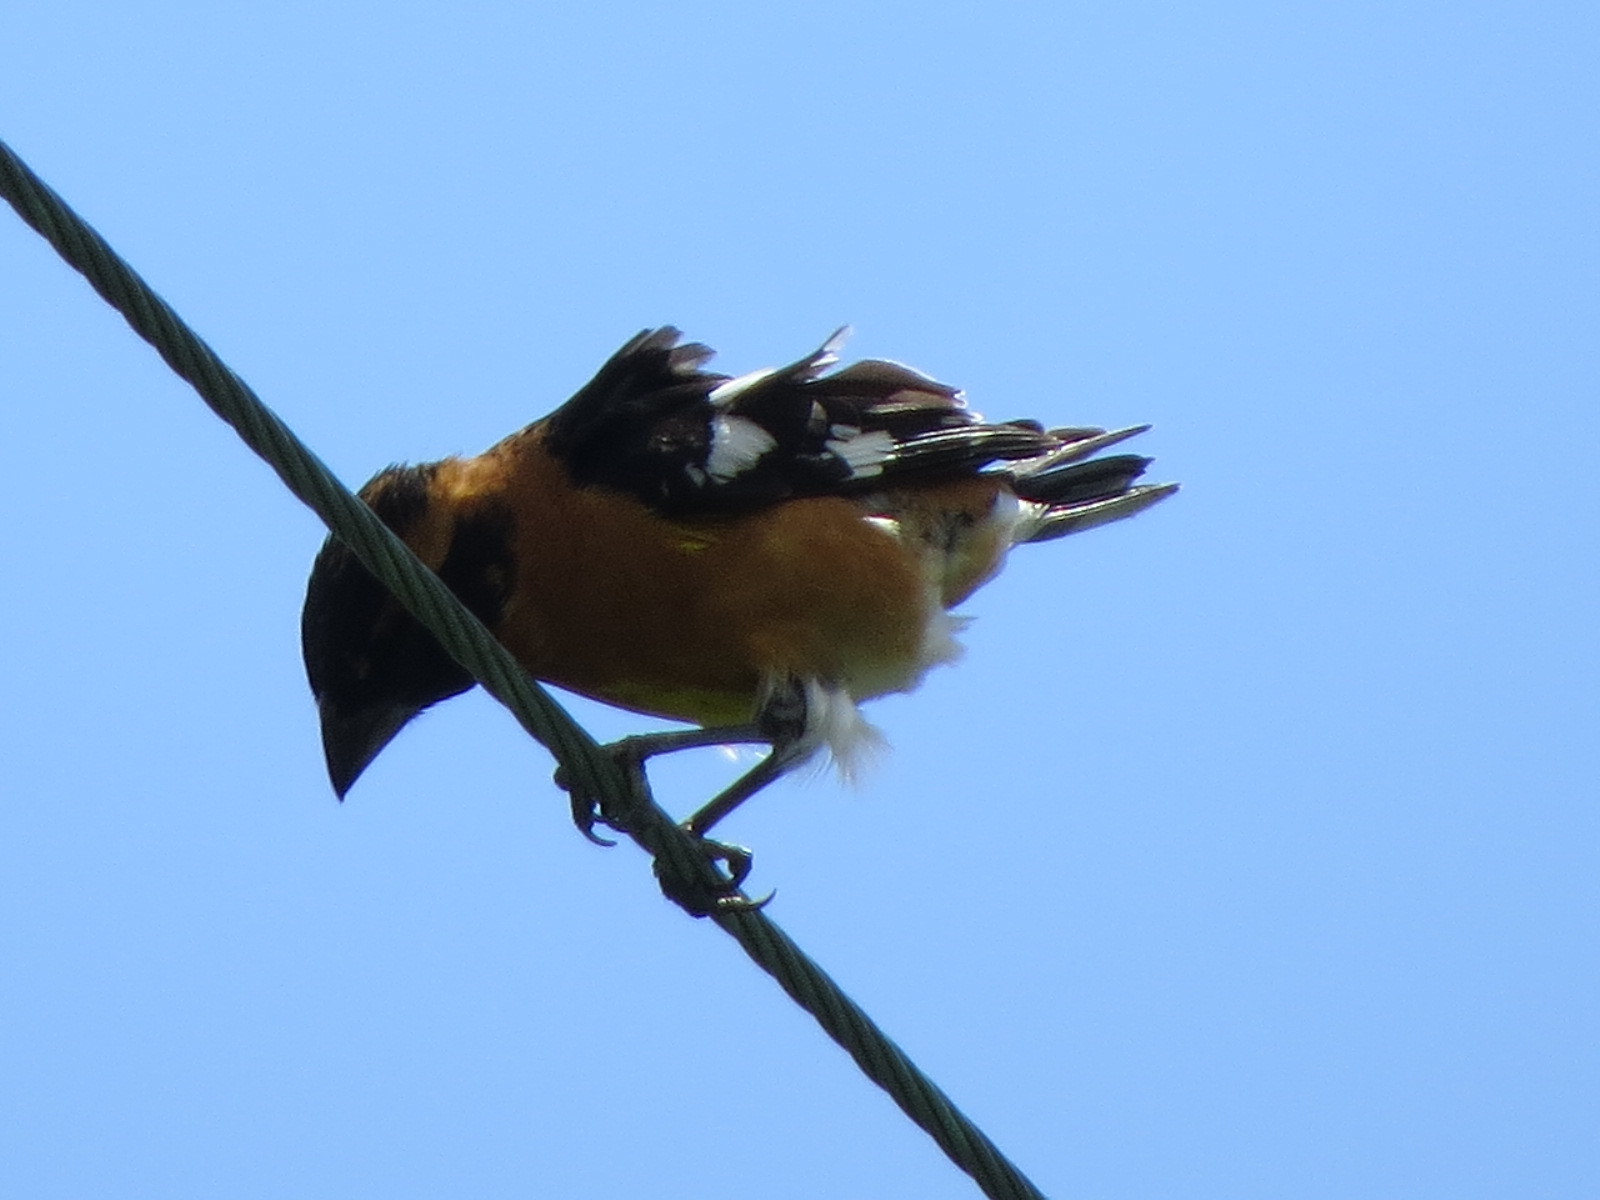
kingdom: Animalia
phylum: Chordata
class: Aves
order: Passeriformes
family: Cardinalidae
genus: Pheucticus
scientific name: Pheucticus melanocephalus
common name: Black-headed grosbeak
